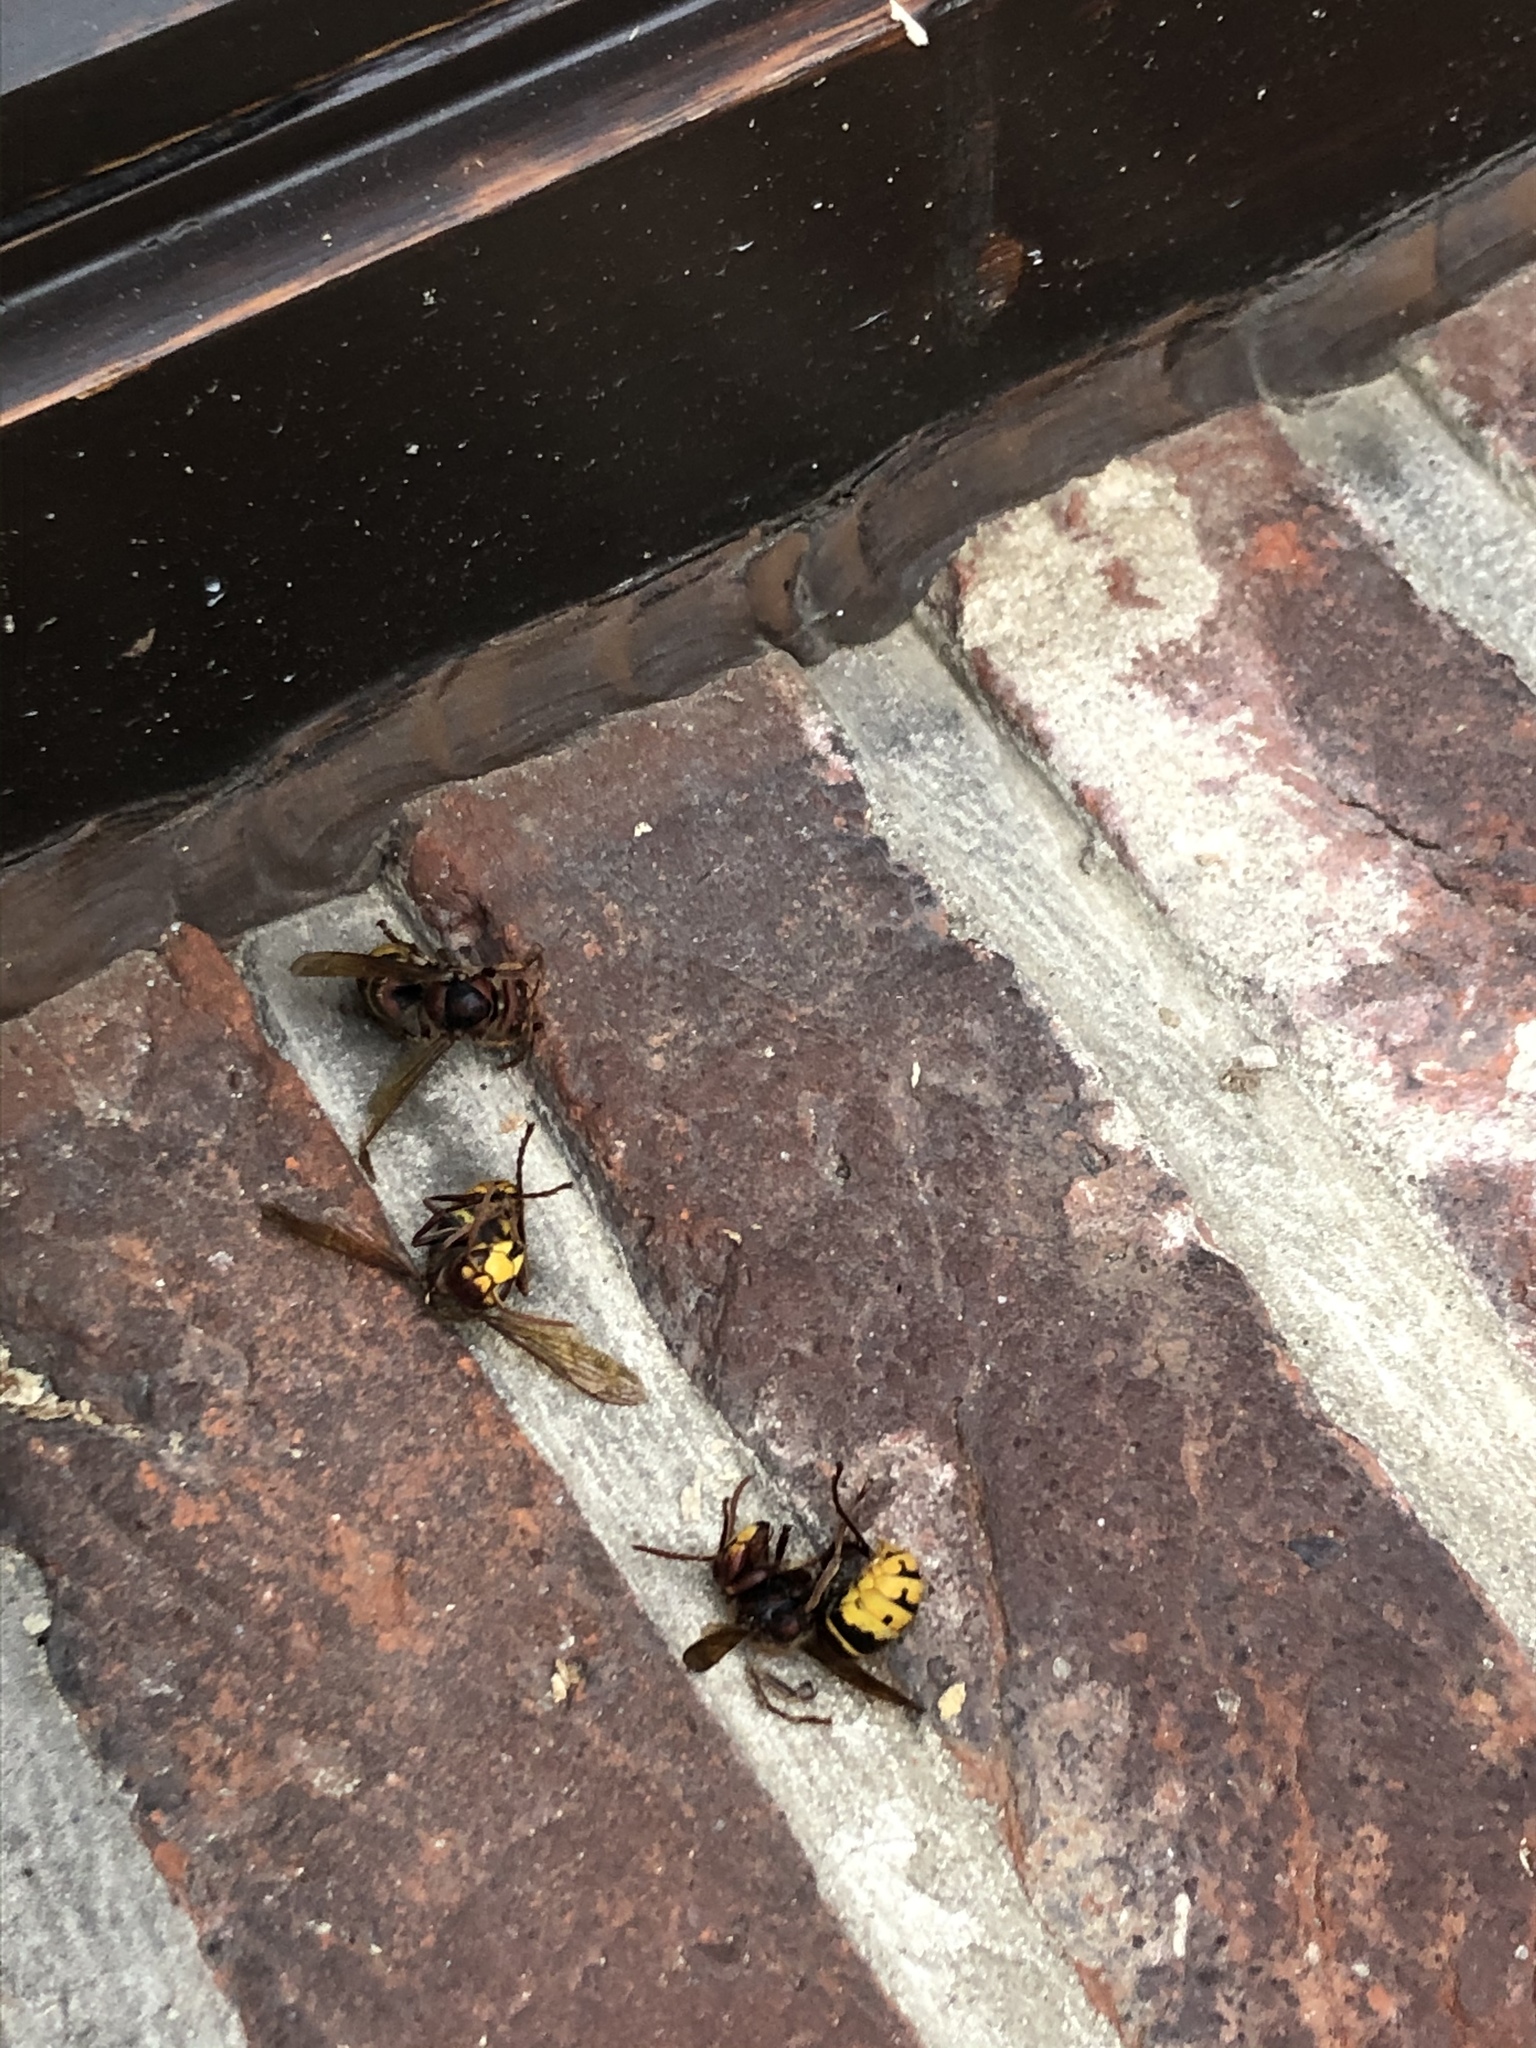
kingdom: Animalia
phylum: Arthropoda
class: Insecta
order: Hymenoptera
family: Vespidae
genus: Vespa
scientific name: Vespa crabro
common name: Hornet
